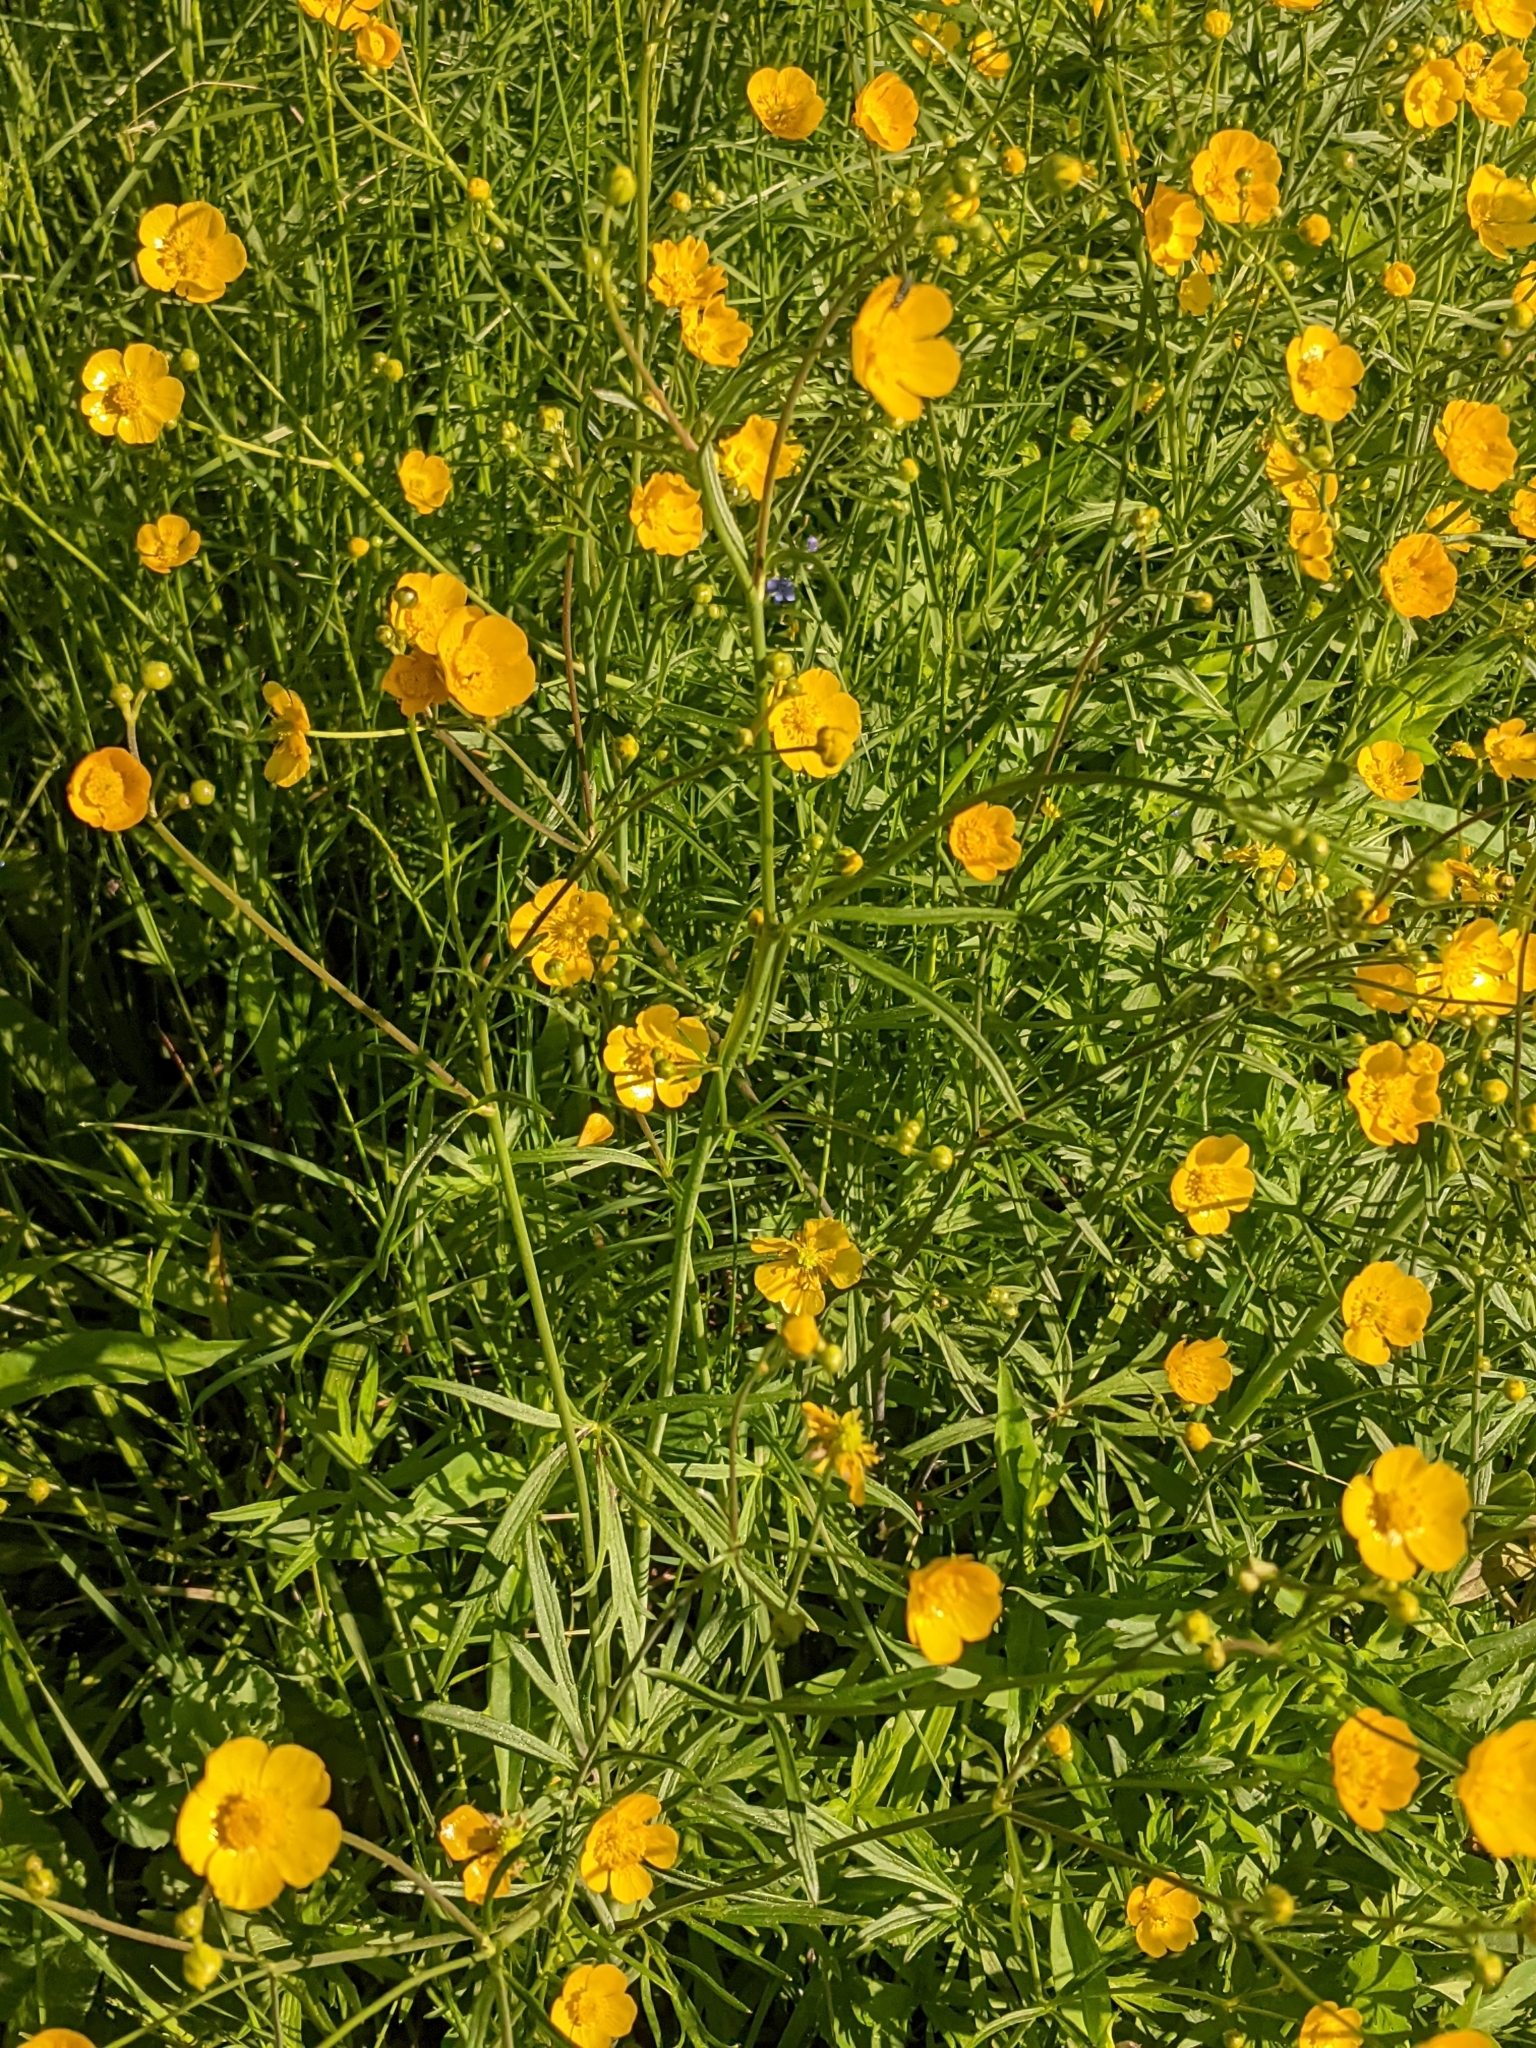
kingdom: Plantae
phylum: Tracheophyta
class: Magnoliopsida
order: Ranunculales
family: Ranunculaceae
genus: Ranunculus
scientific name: Ranunculus acris
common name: Meadow buttercup
